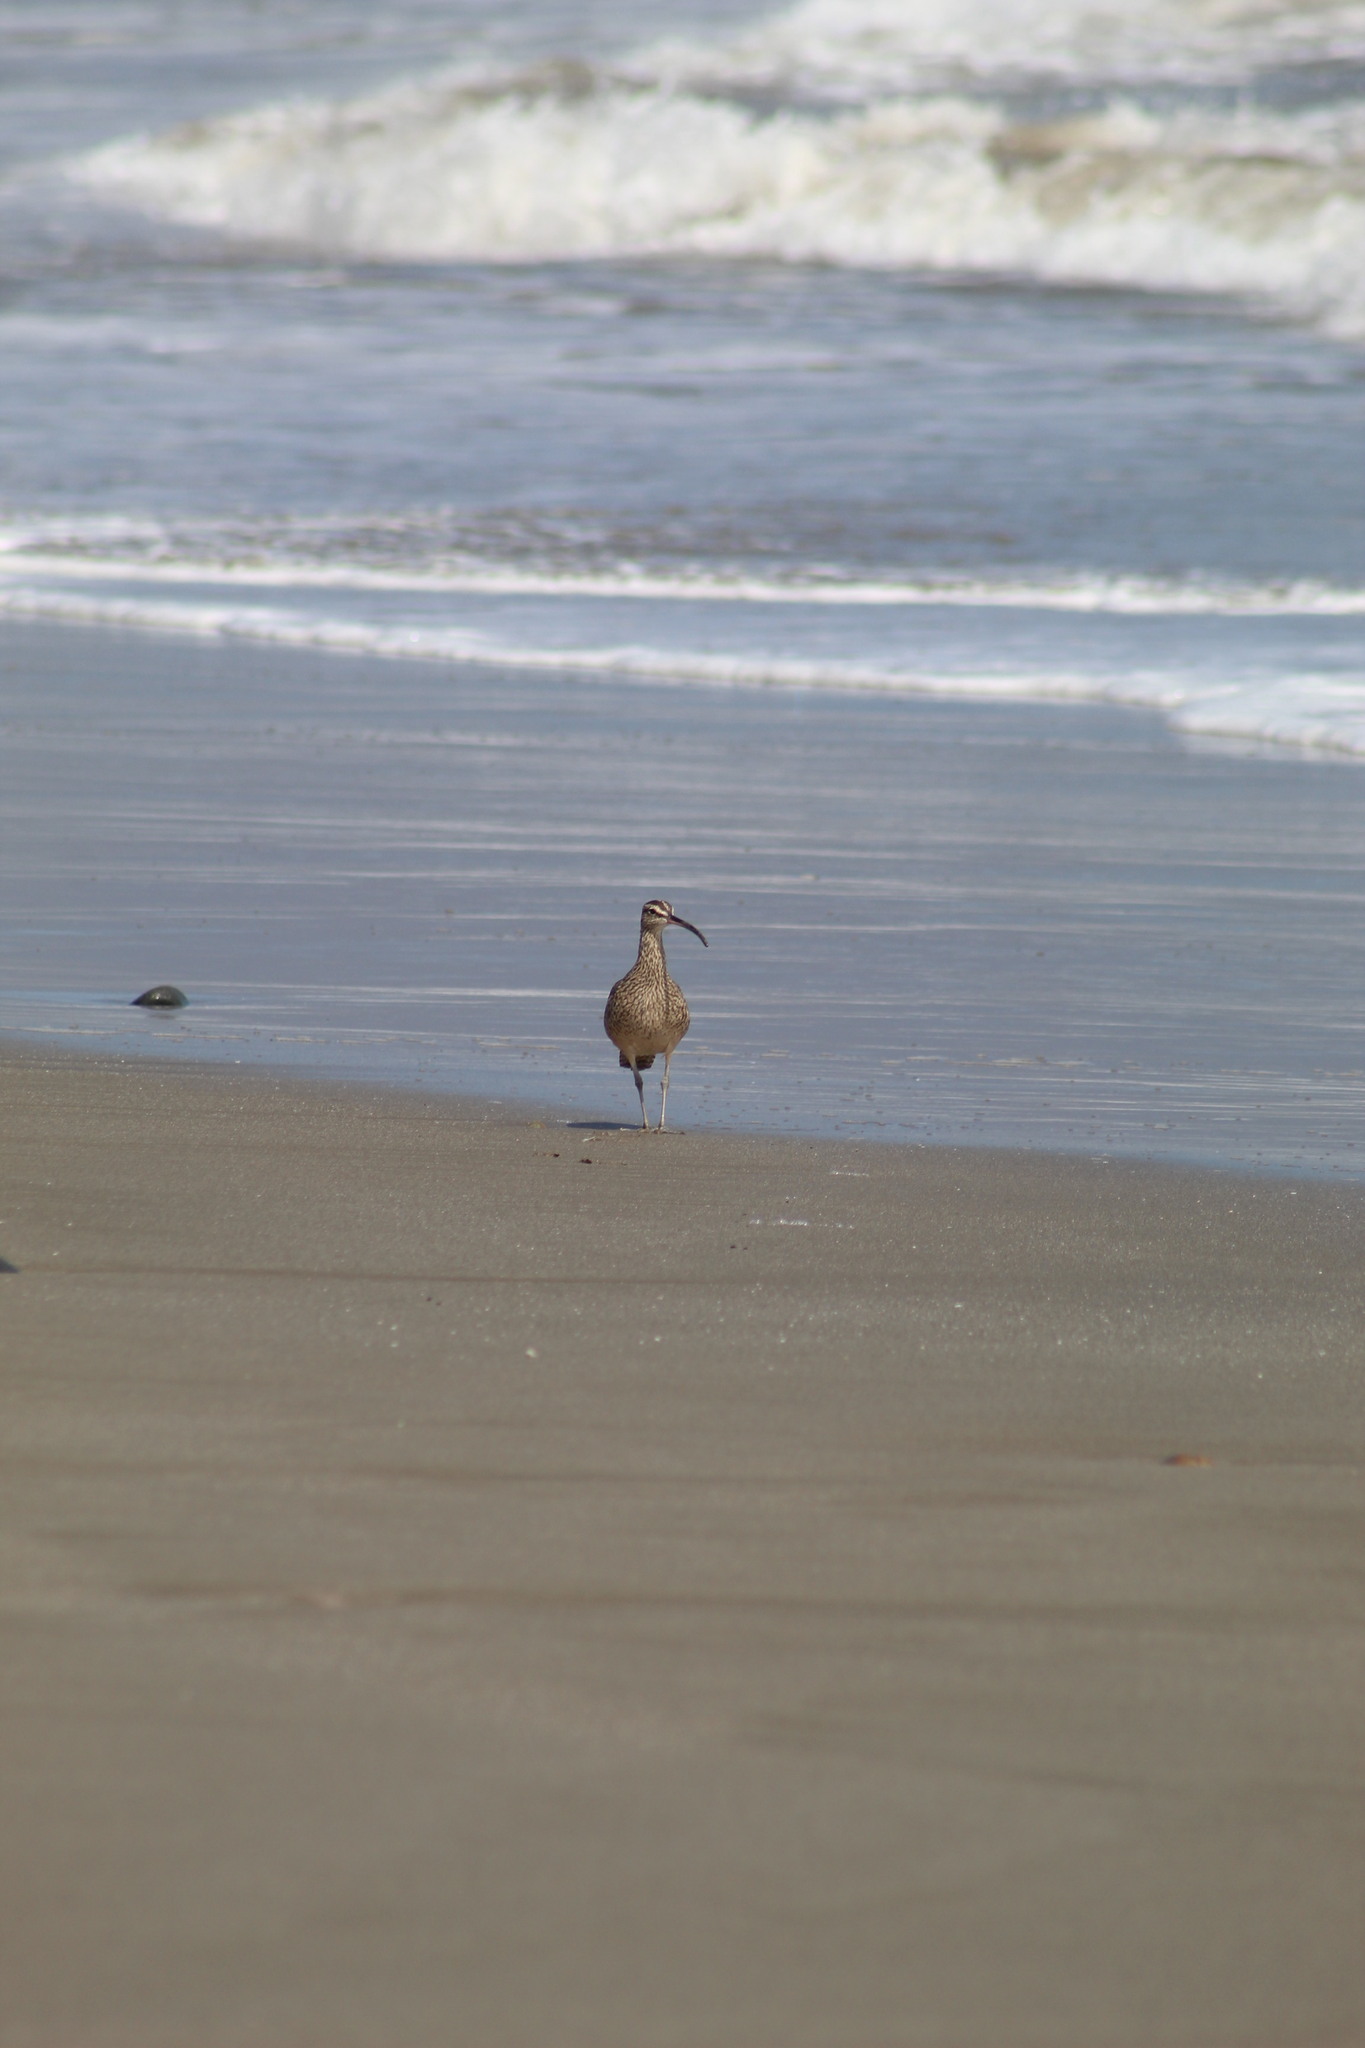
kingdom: Animalia
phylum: Chordata
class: Aves
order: Charadriiformes
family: Scolopacidae
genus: Numenius
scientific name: Numenius phaeopus
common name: Whimbrel
